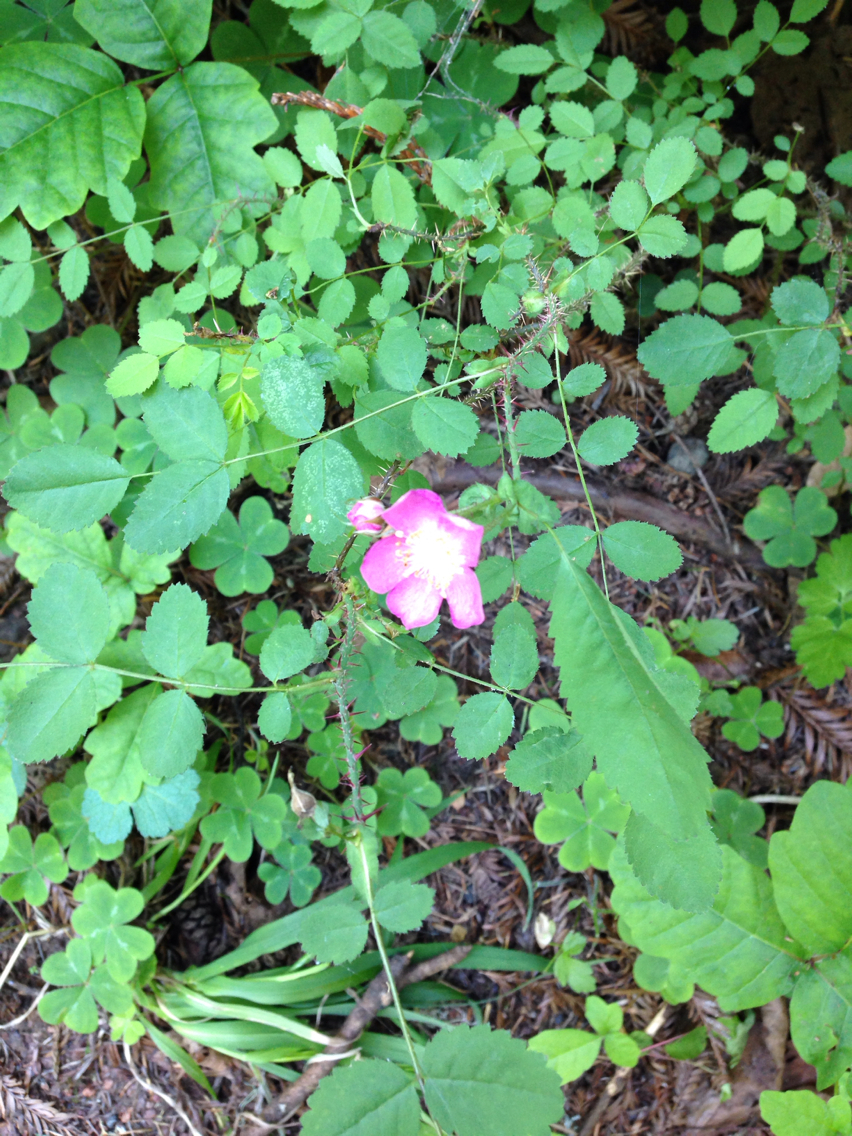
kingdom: Plantae
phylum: Tracheophyta
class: Magnoliopsida
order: Rosales
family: Rosaceae
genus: Rosa
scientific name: Rosa gymnocarpa
